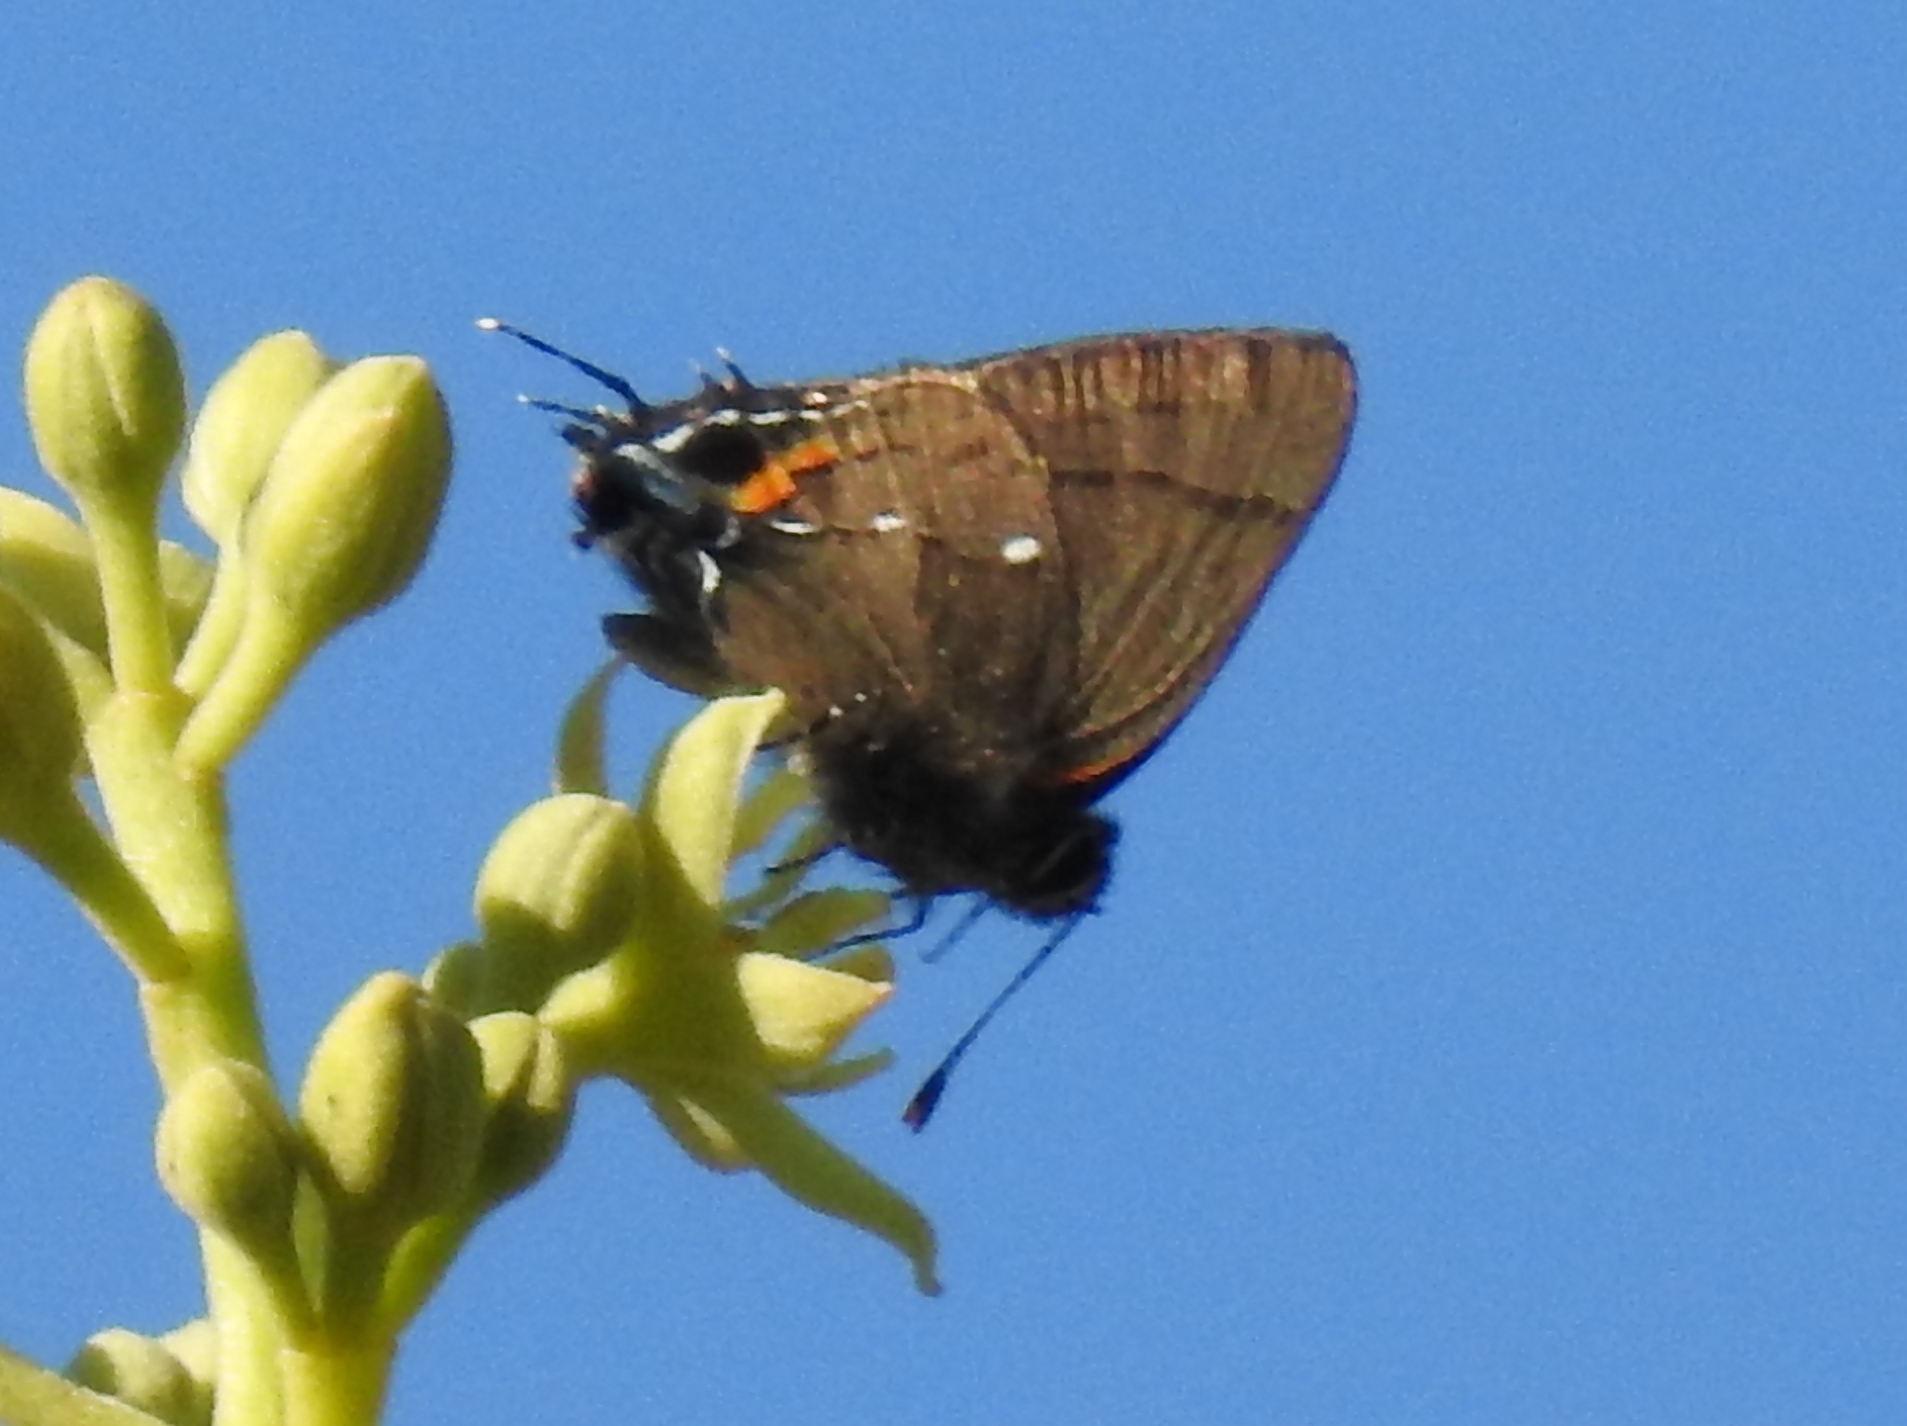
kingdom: Animalia
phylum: Arthropoda
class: Insecta
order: Lepidoptera
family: Lycaenidae
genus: Thecla
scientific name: Thecla angelia
